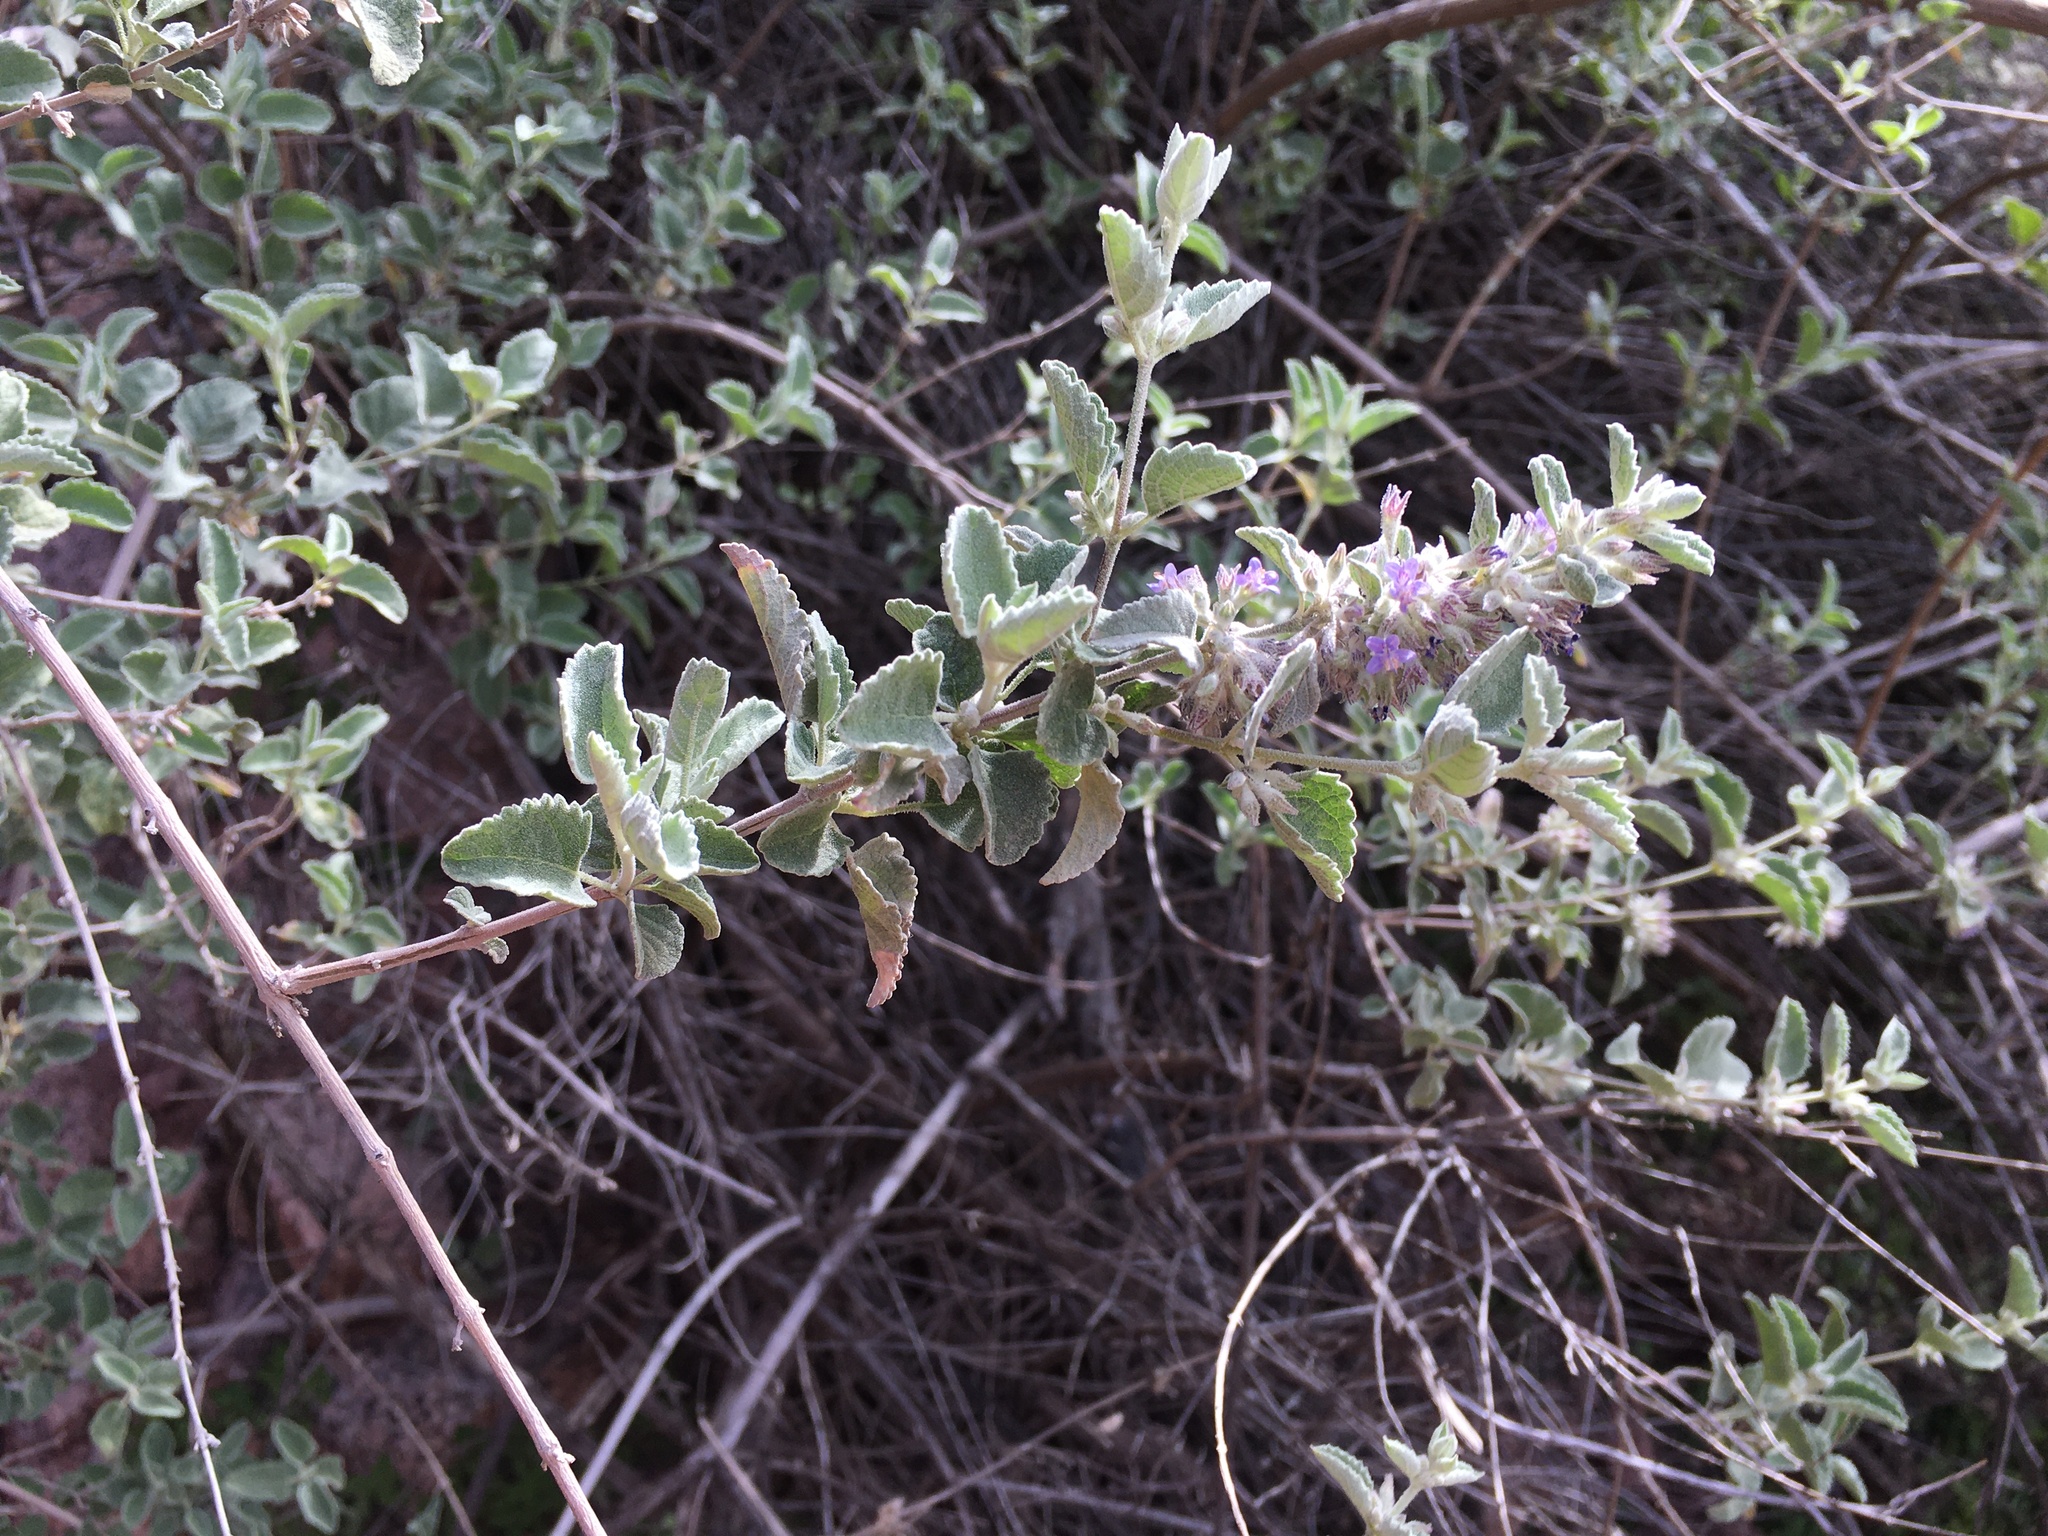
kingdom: Plantae
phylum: Tracheophyta
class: Magnoliopsida
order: Lamiales
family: Lamiaceae
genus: Condea
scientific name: Condea emoryi
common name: Chia
